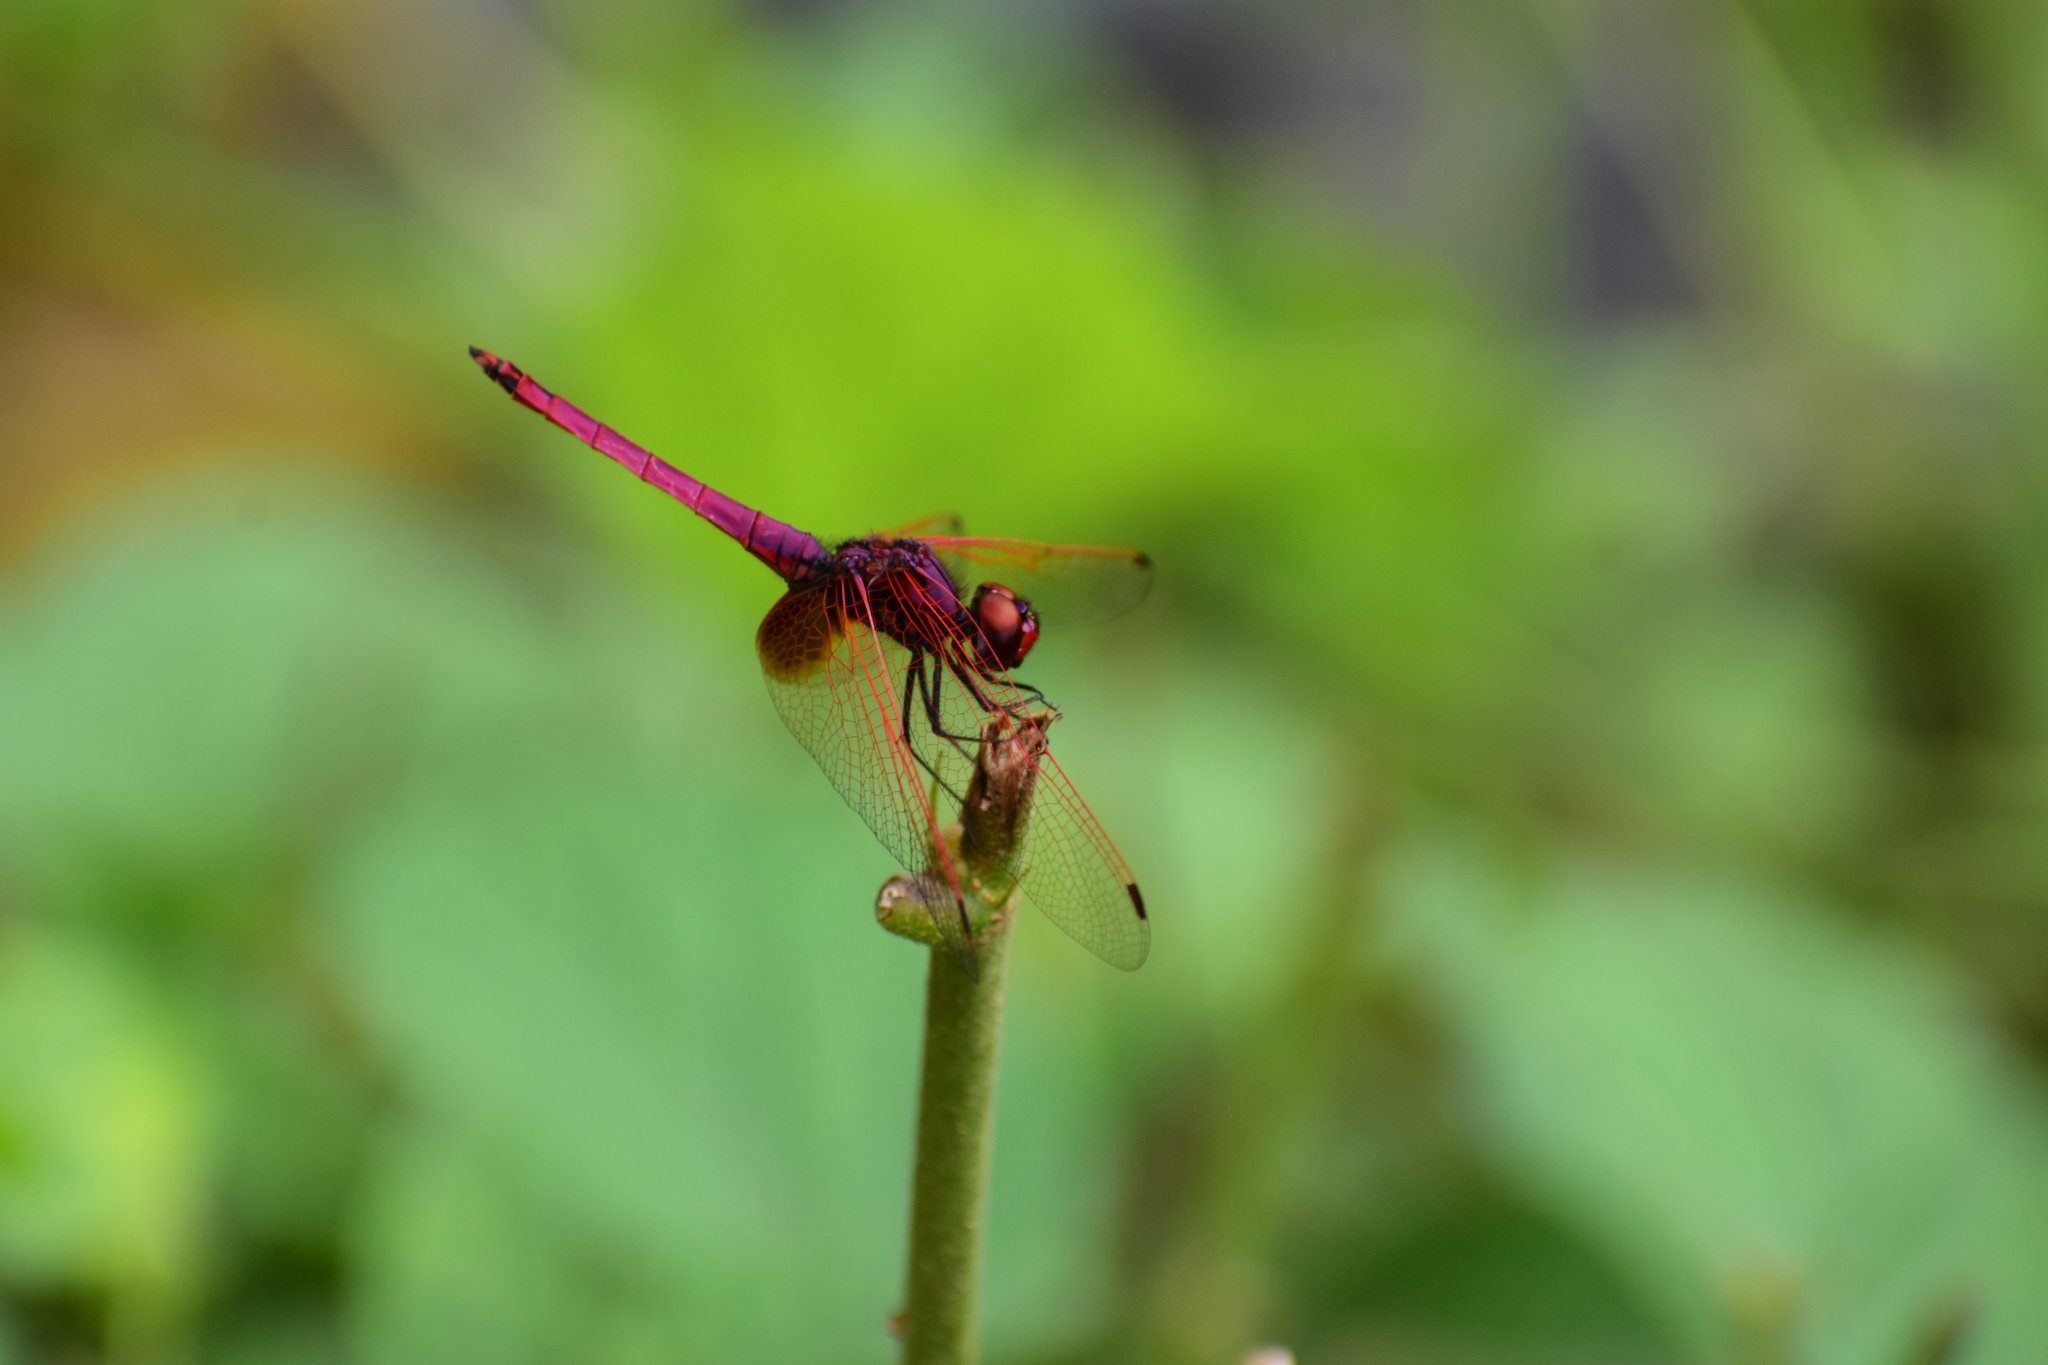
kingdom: Animalia
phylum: Arthropoda
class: Insecta
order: Odonata
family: Libellulidae
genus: Trithemis
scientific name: Trithemis aurora
